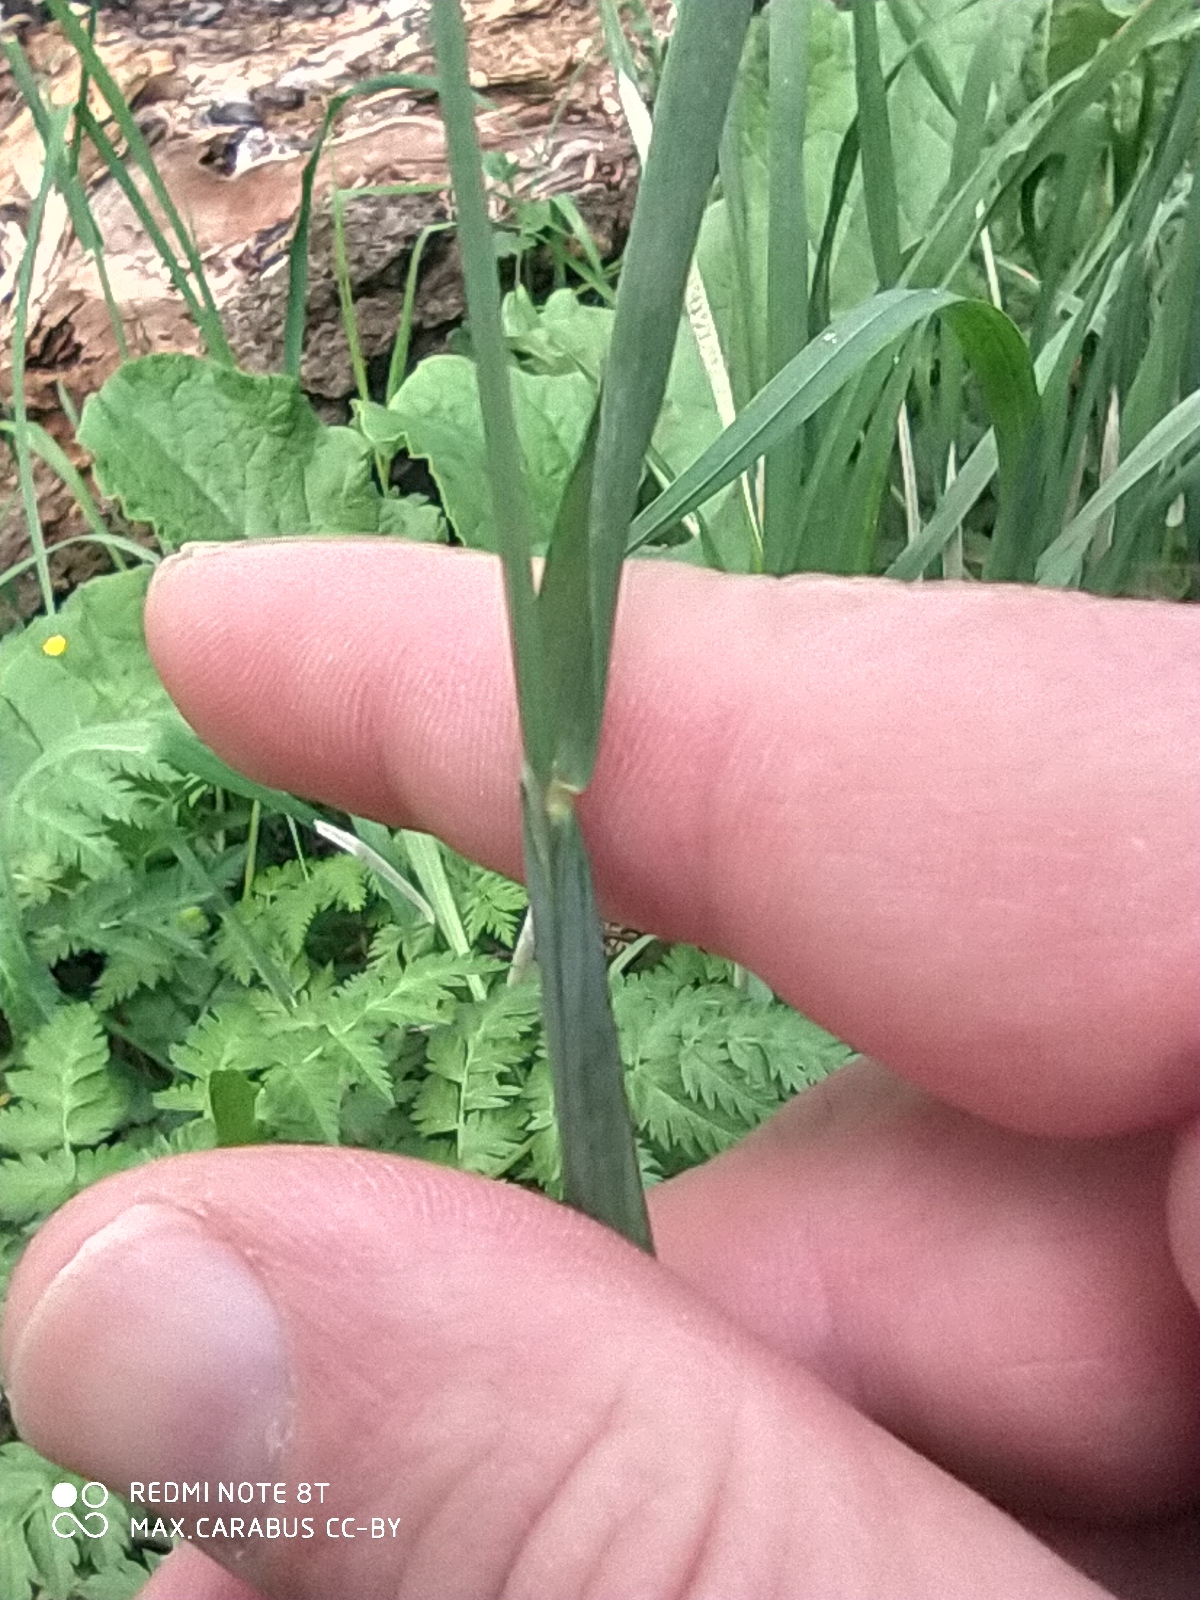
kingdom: Plantae
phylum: Tracheophyta
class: Liliopsida
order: Poales
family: Poaceae
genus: Alopecurus
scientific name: Alopecurus pratensis
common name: Meadow foxtail
